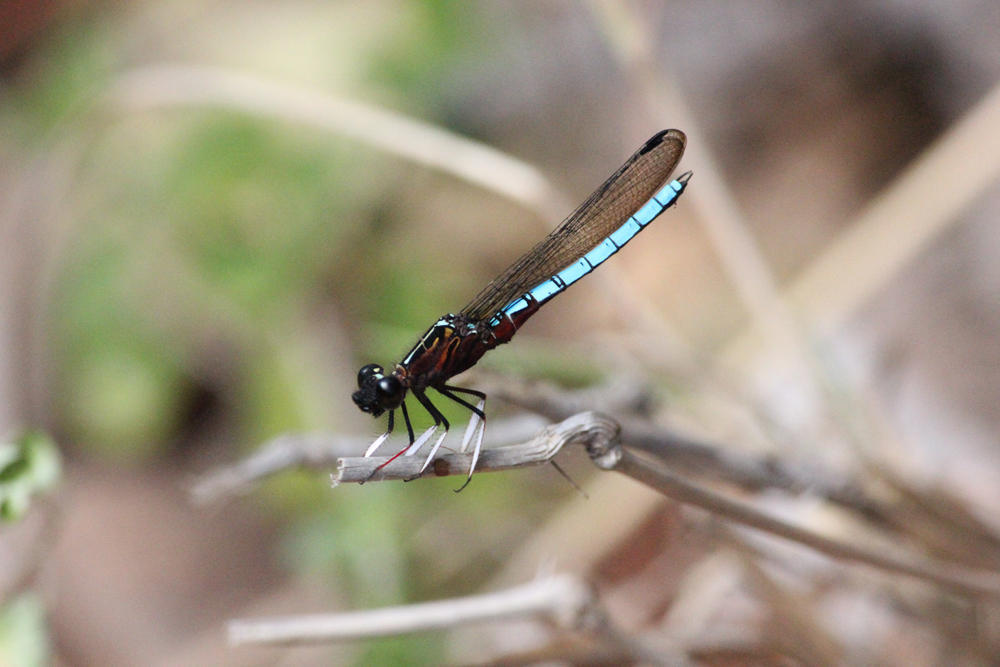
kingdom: Animalia
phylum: Arthropoda
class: Insecta
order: Odonata
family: Chlorocyphidae
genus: Platycypha
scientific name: Platycypha caligata
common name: Dancing jewel
